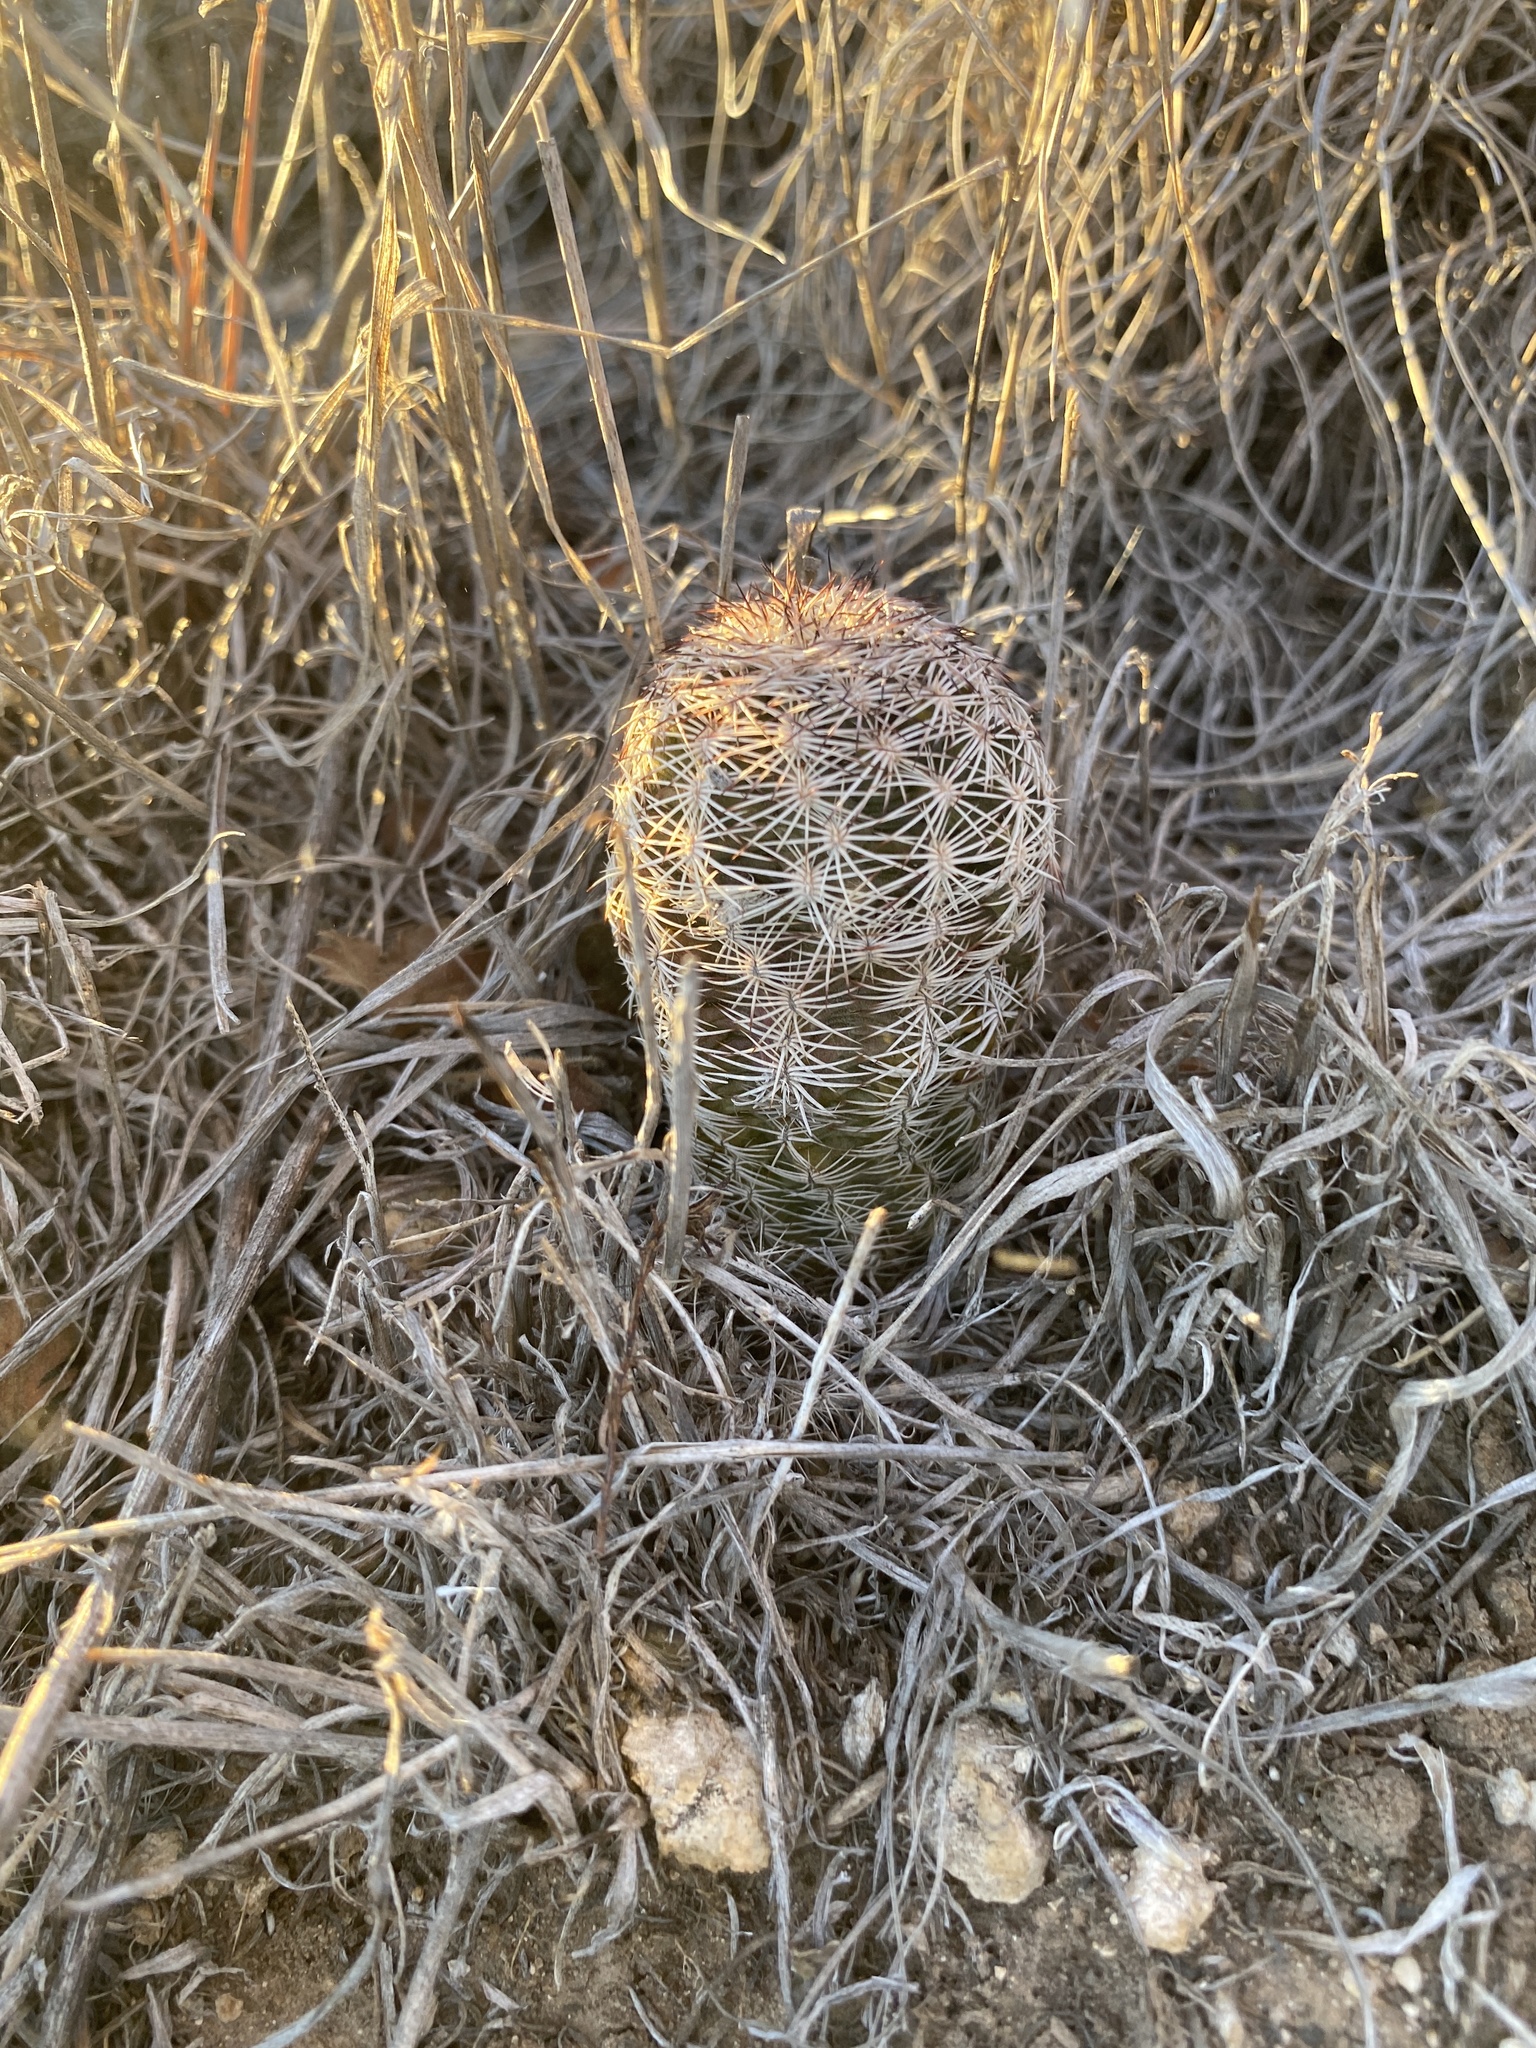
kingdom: Plantae
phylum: Tracheophyta
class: Magnoliopsida
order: Caryophyllales
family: Cactaceae
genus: Echinocereus
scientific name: Echinocereus reichenbachii
